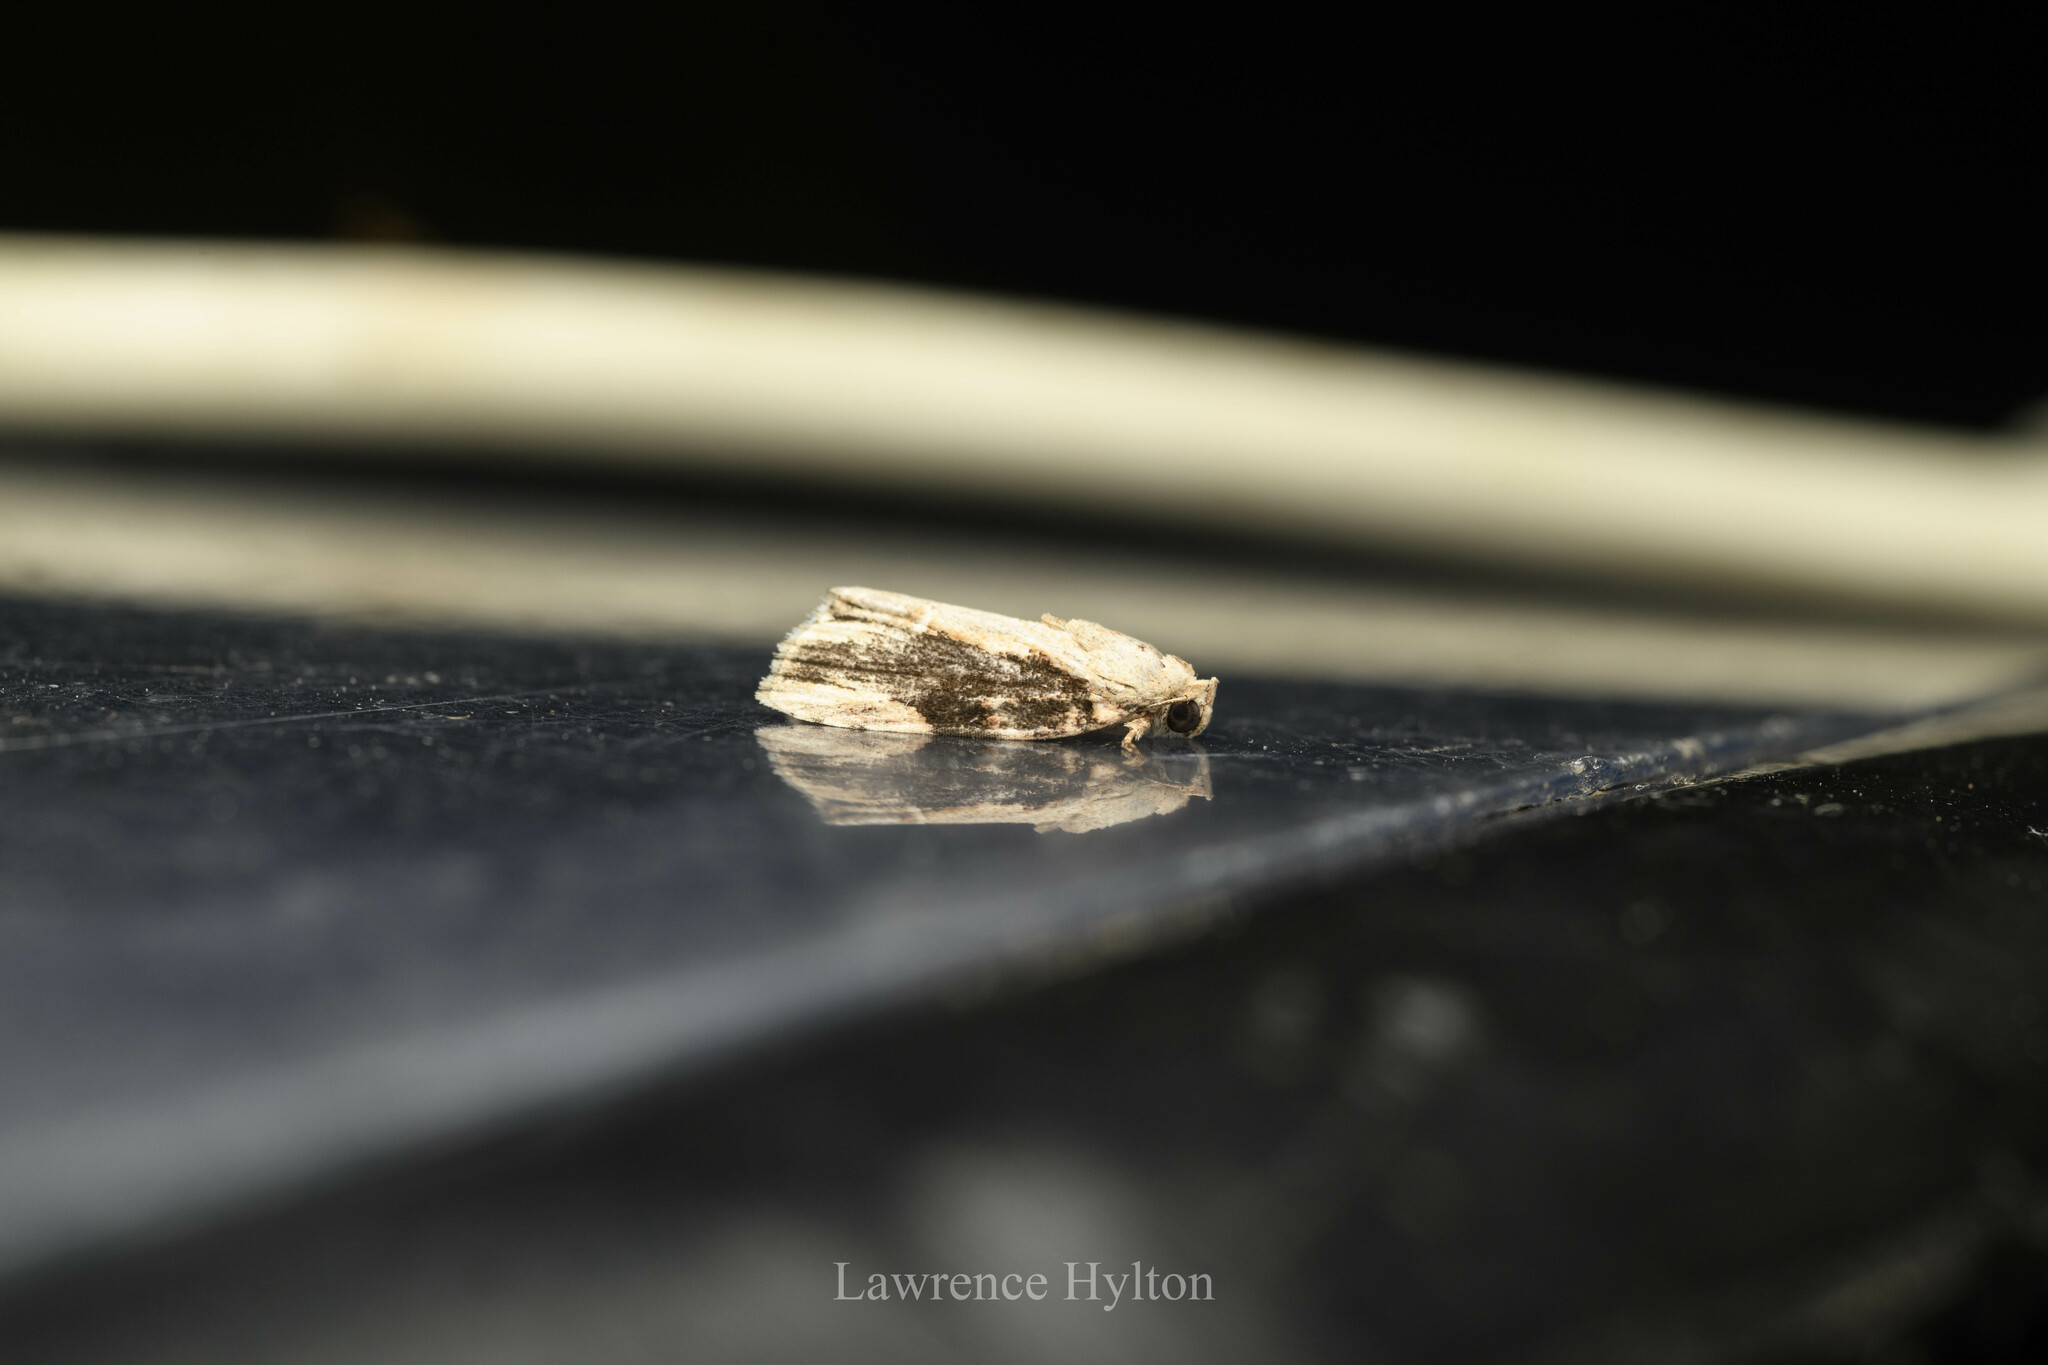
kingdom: Animalia
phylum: Arthropoda
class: Insecta
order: Lepidoptera
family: Nolidae
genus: Etanna
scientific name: Etanna breviuscula
